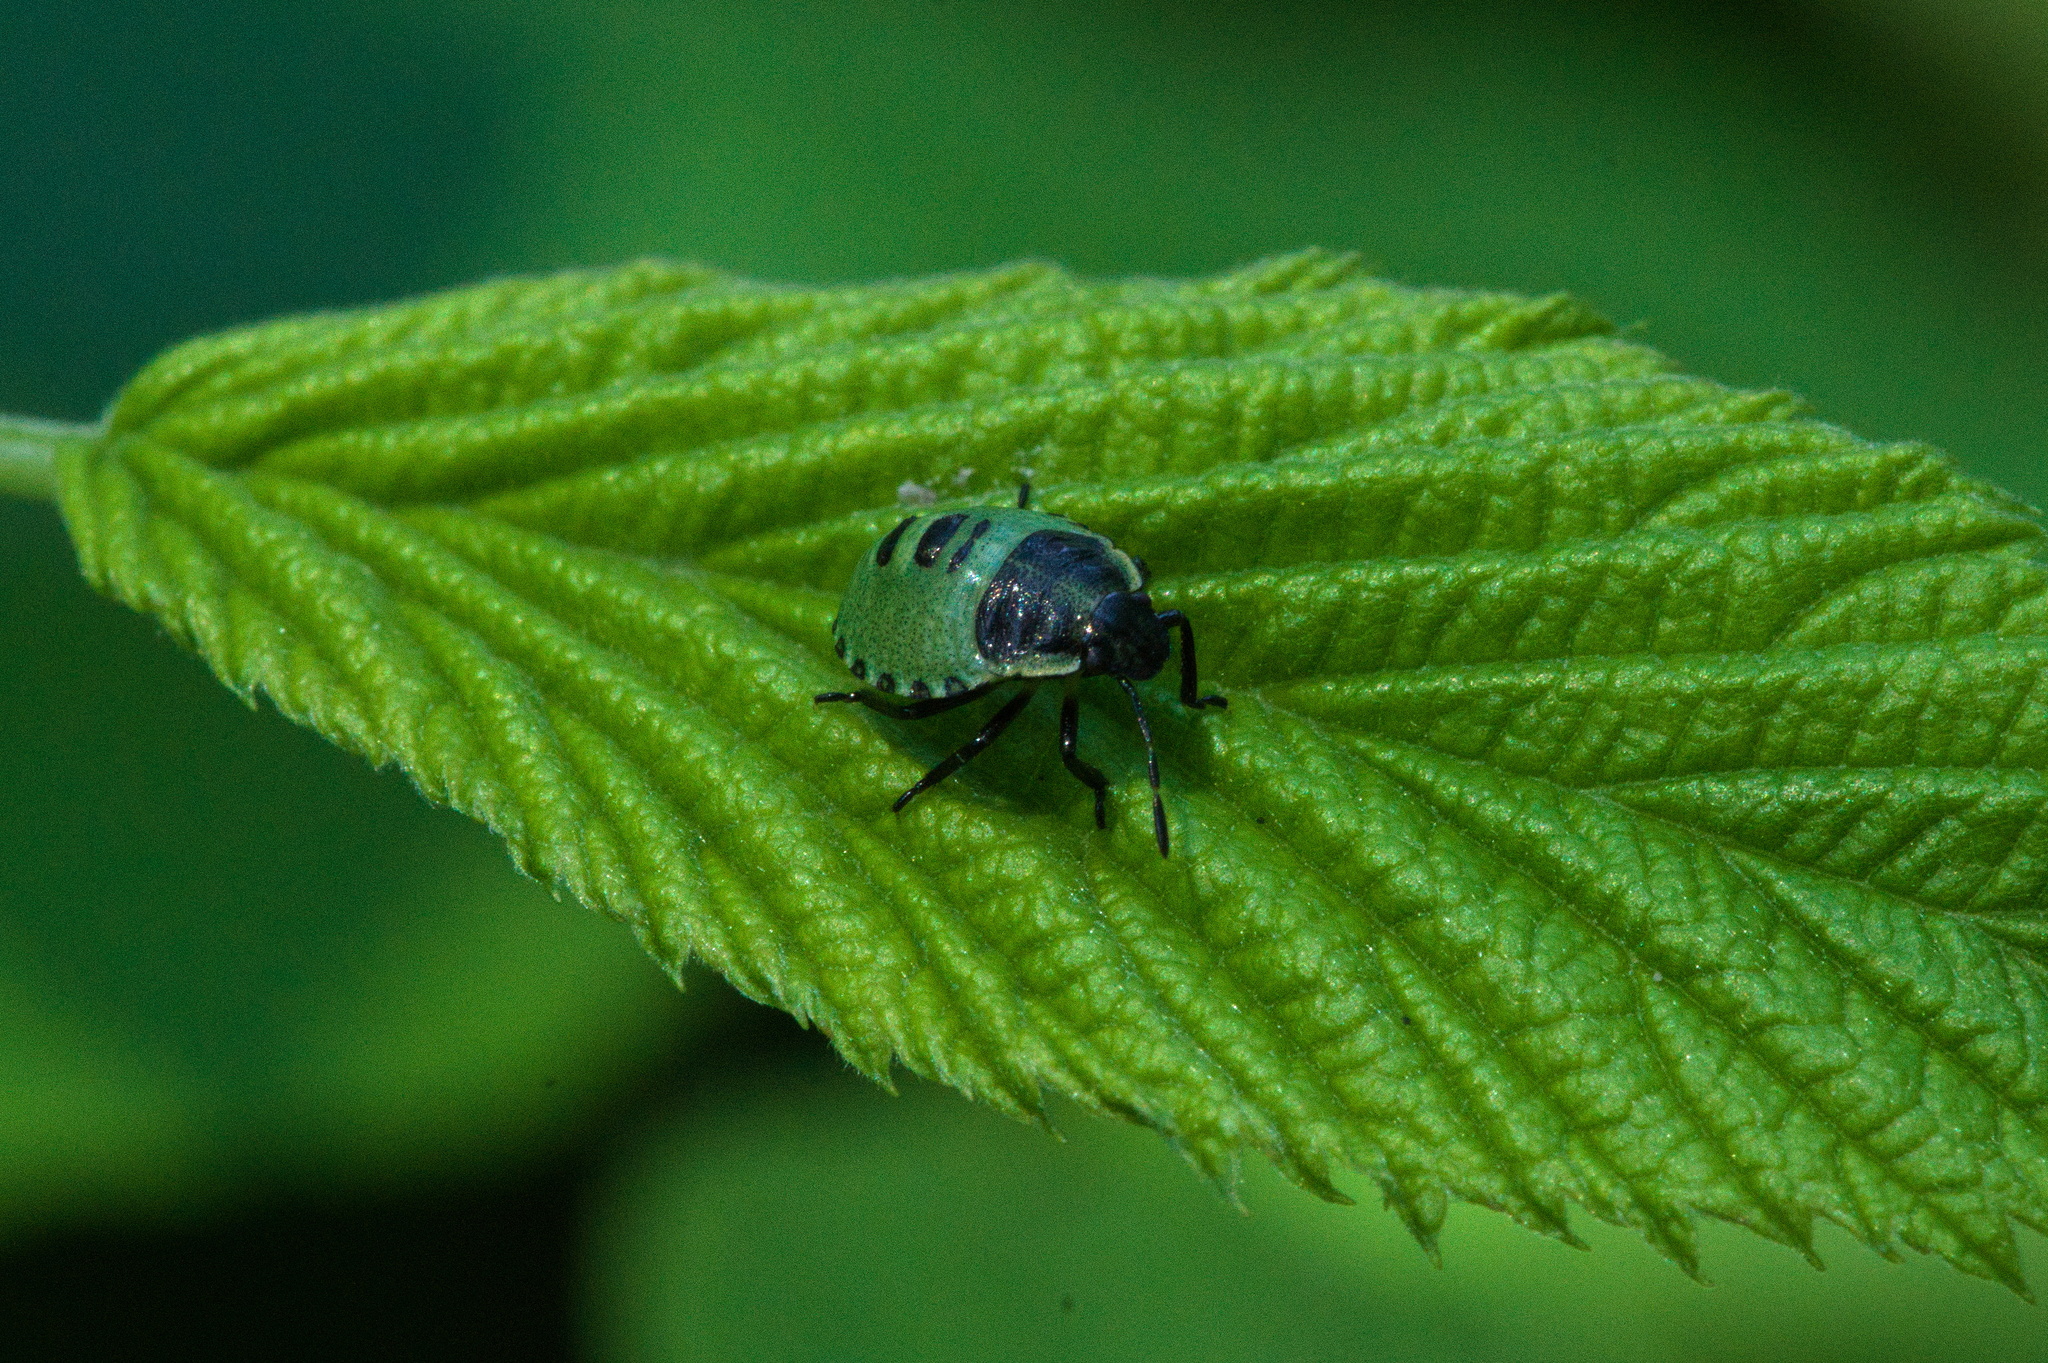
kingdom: Animalia
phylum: Arthropoda
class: Insecta
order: Hemiptera
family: Pentatomidae
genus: Palomena
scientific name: Palomena prasina
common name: Green shieldbug
